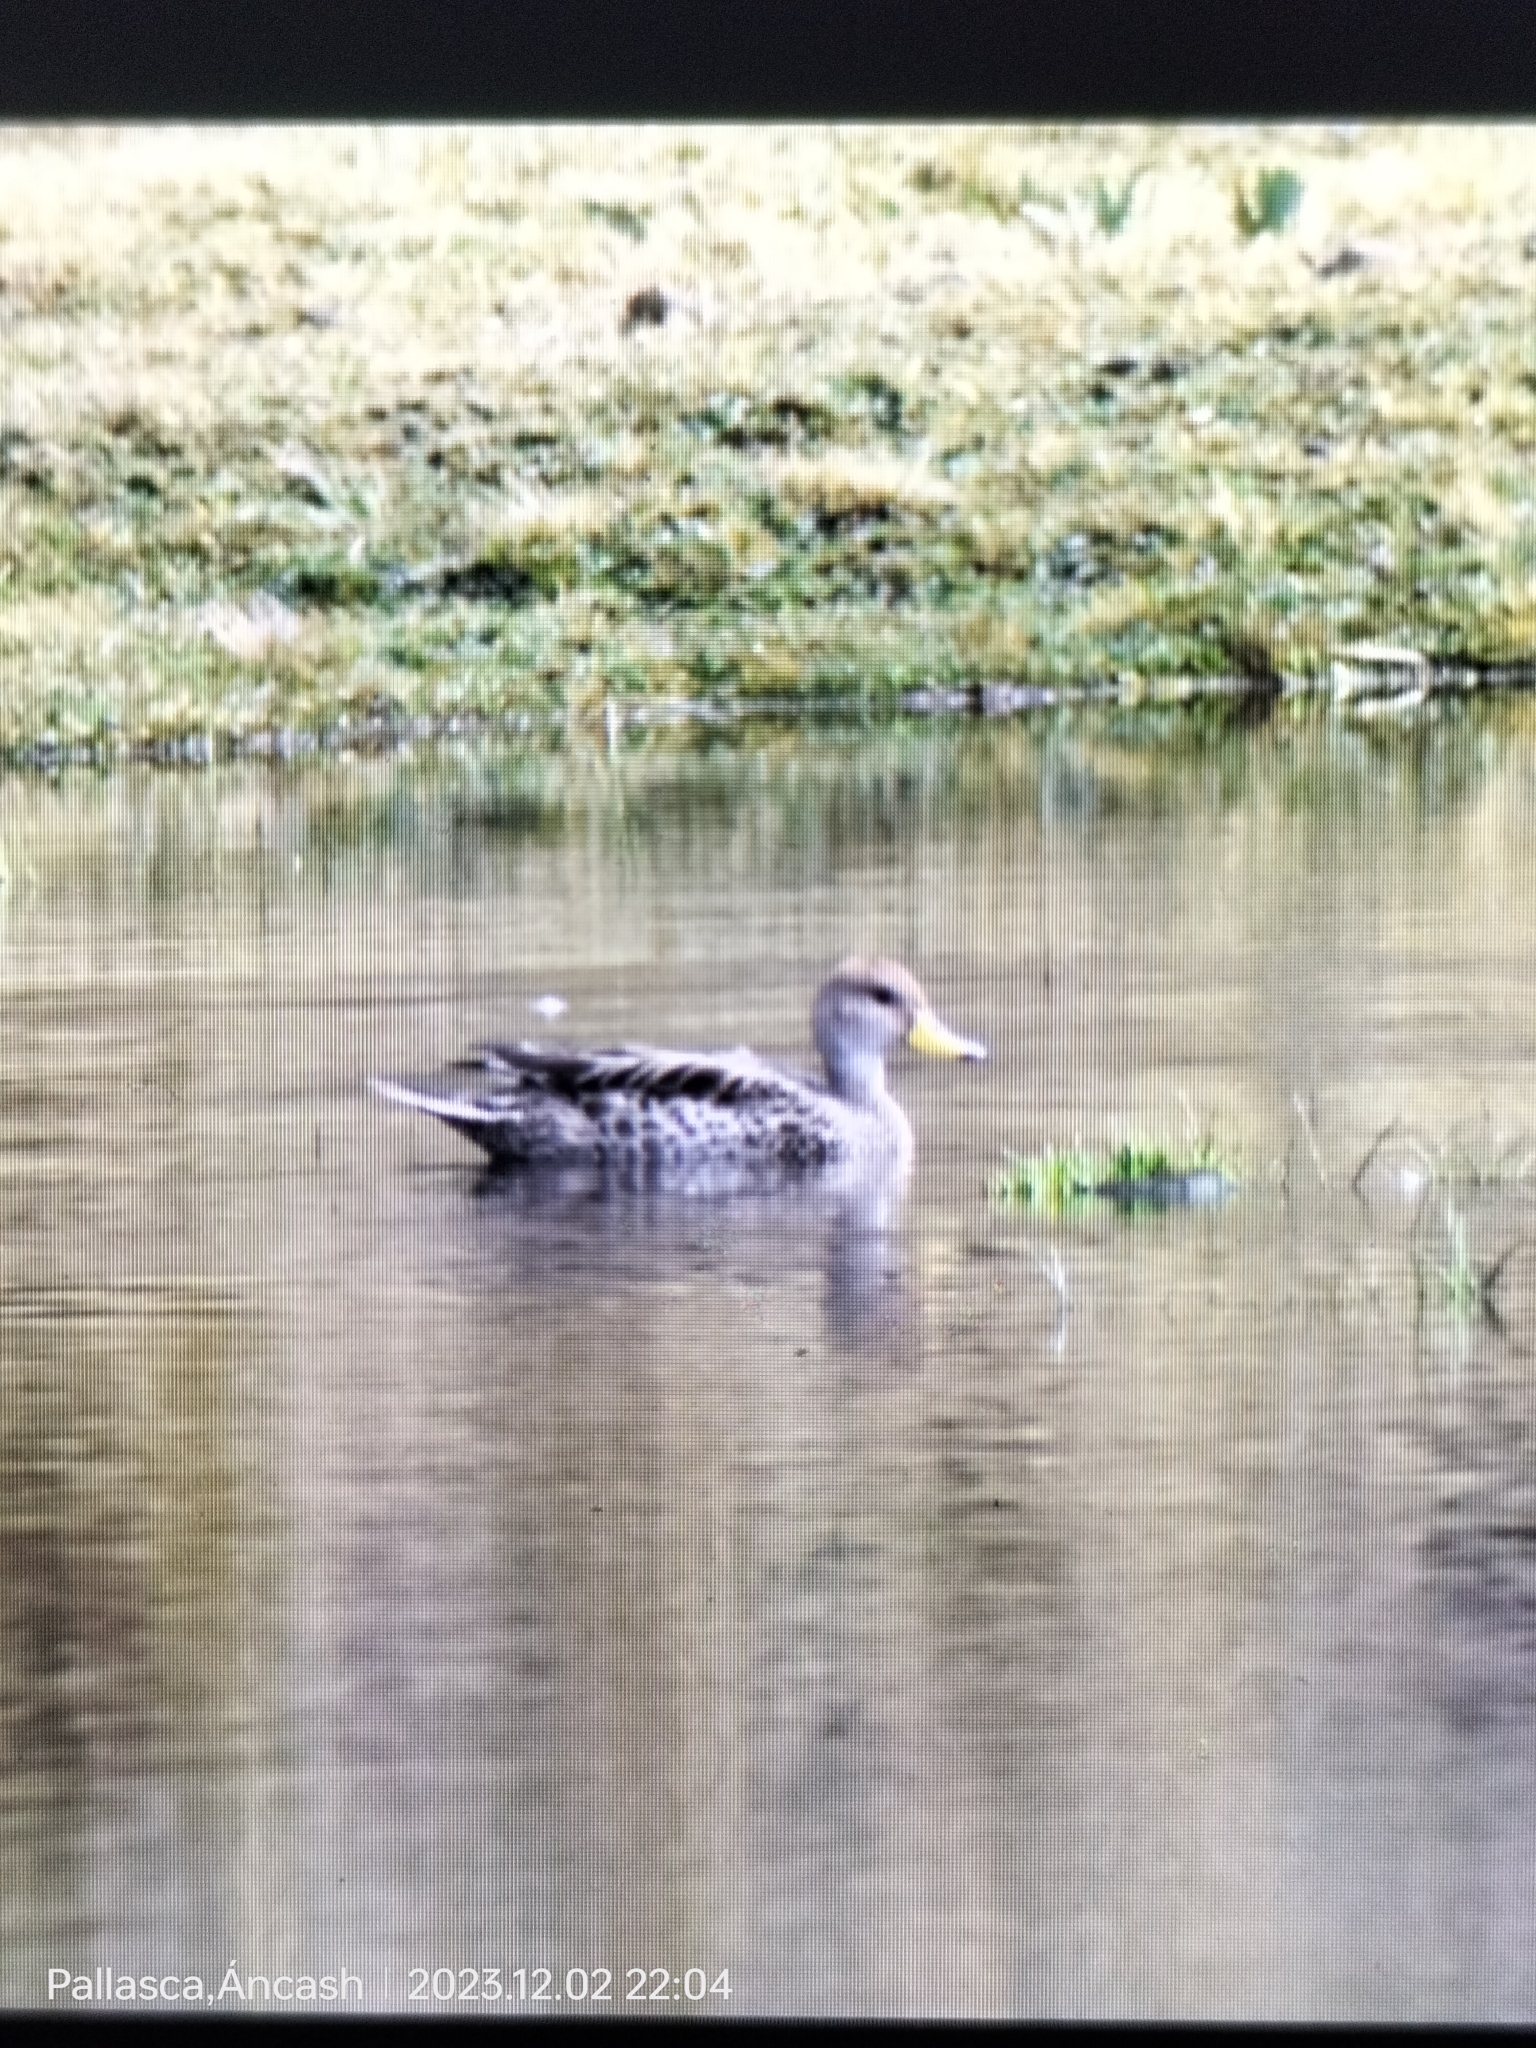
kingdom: Animalia
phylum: Chordata
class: Aves
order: Anseriformes
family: Anatidae
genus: Anas
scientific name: Anas georgica
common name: Yellow-billed pintail
